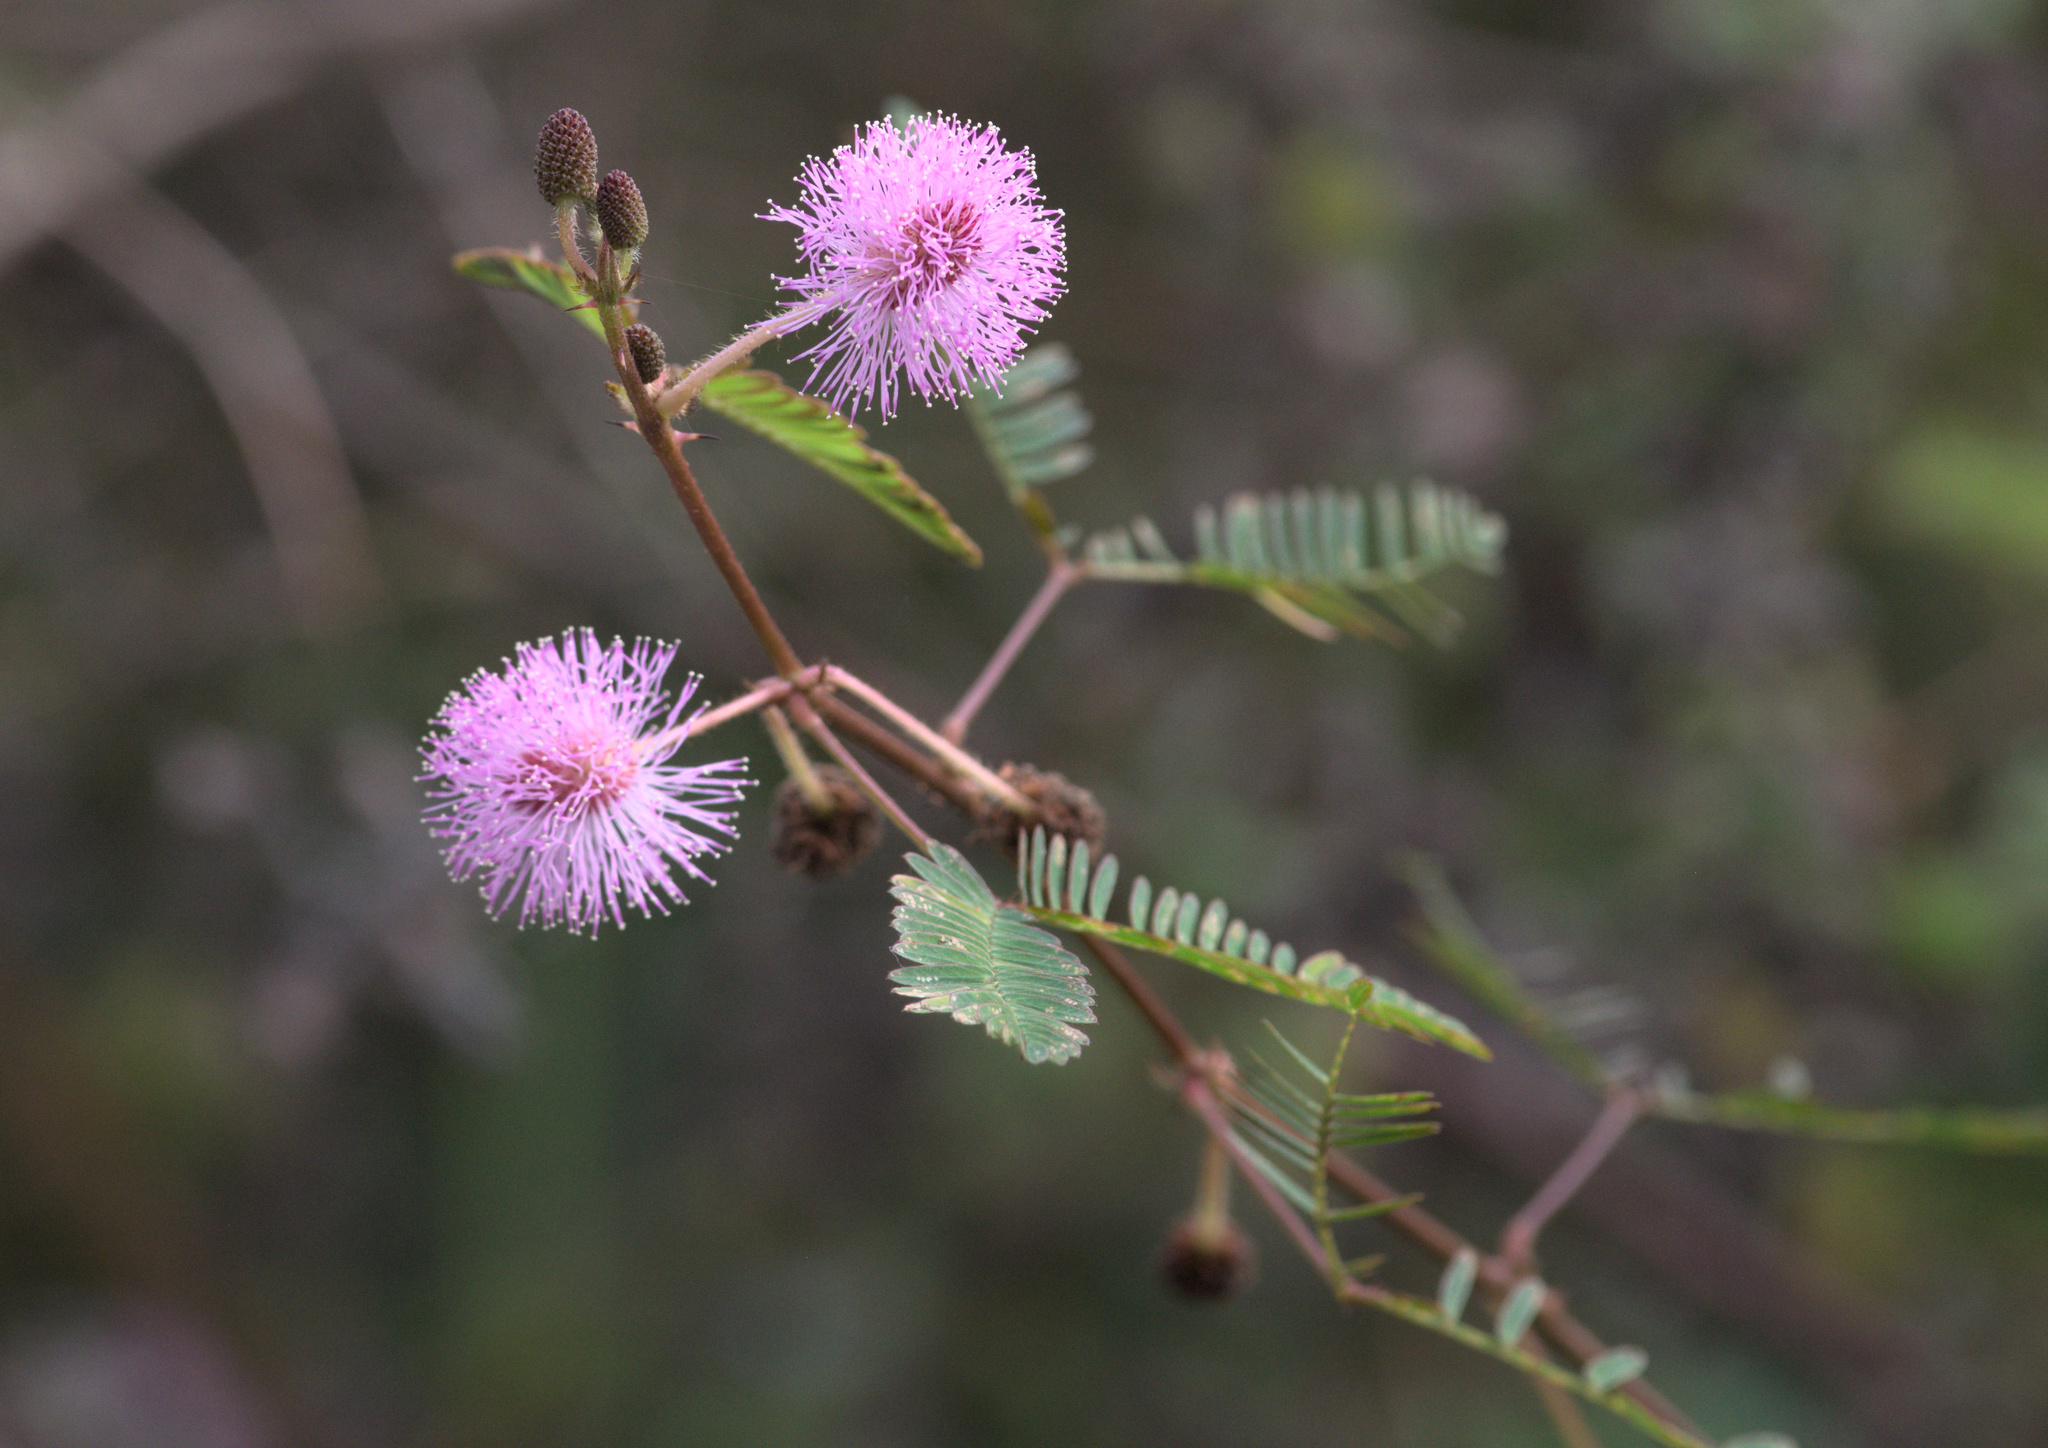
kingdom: Plantae
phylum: Tracheophyta
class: Magnoliopsida
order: Fabales
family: Fabaceae
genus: Mimosa
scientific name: Mimosa pudica
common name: Sensitive plant
